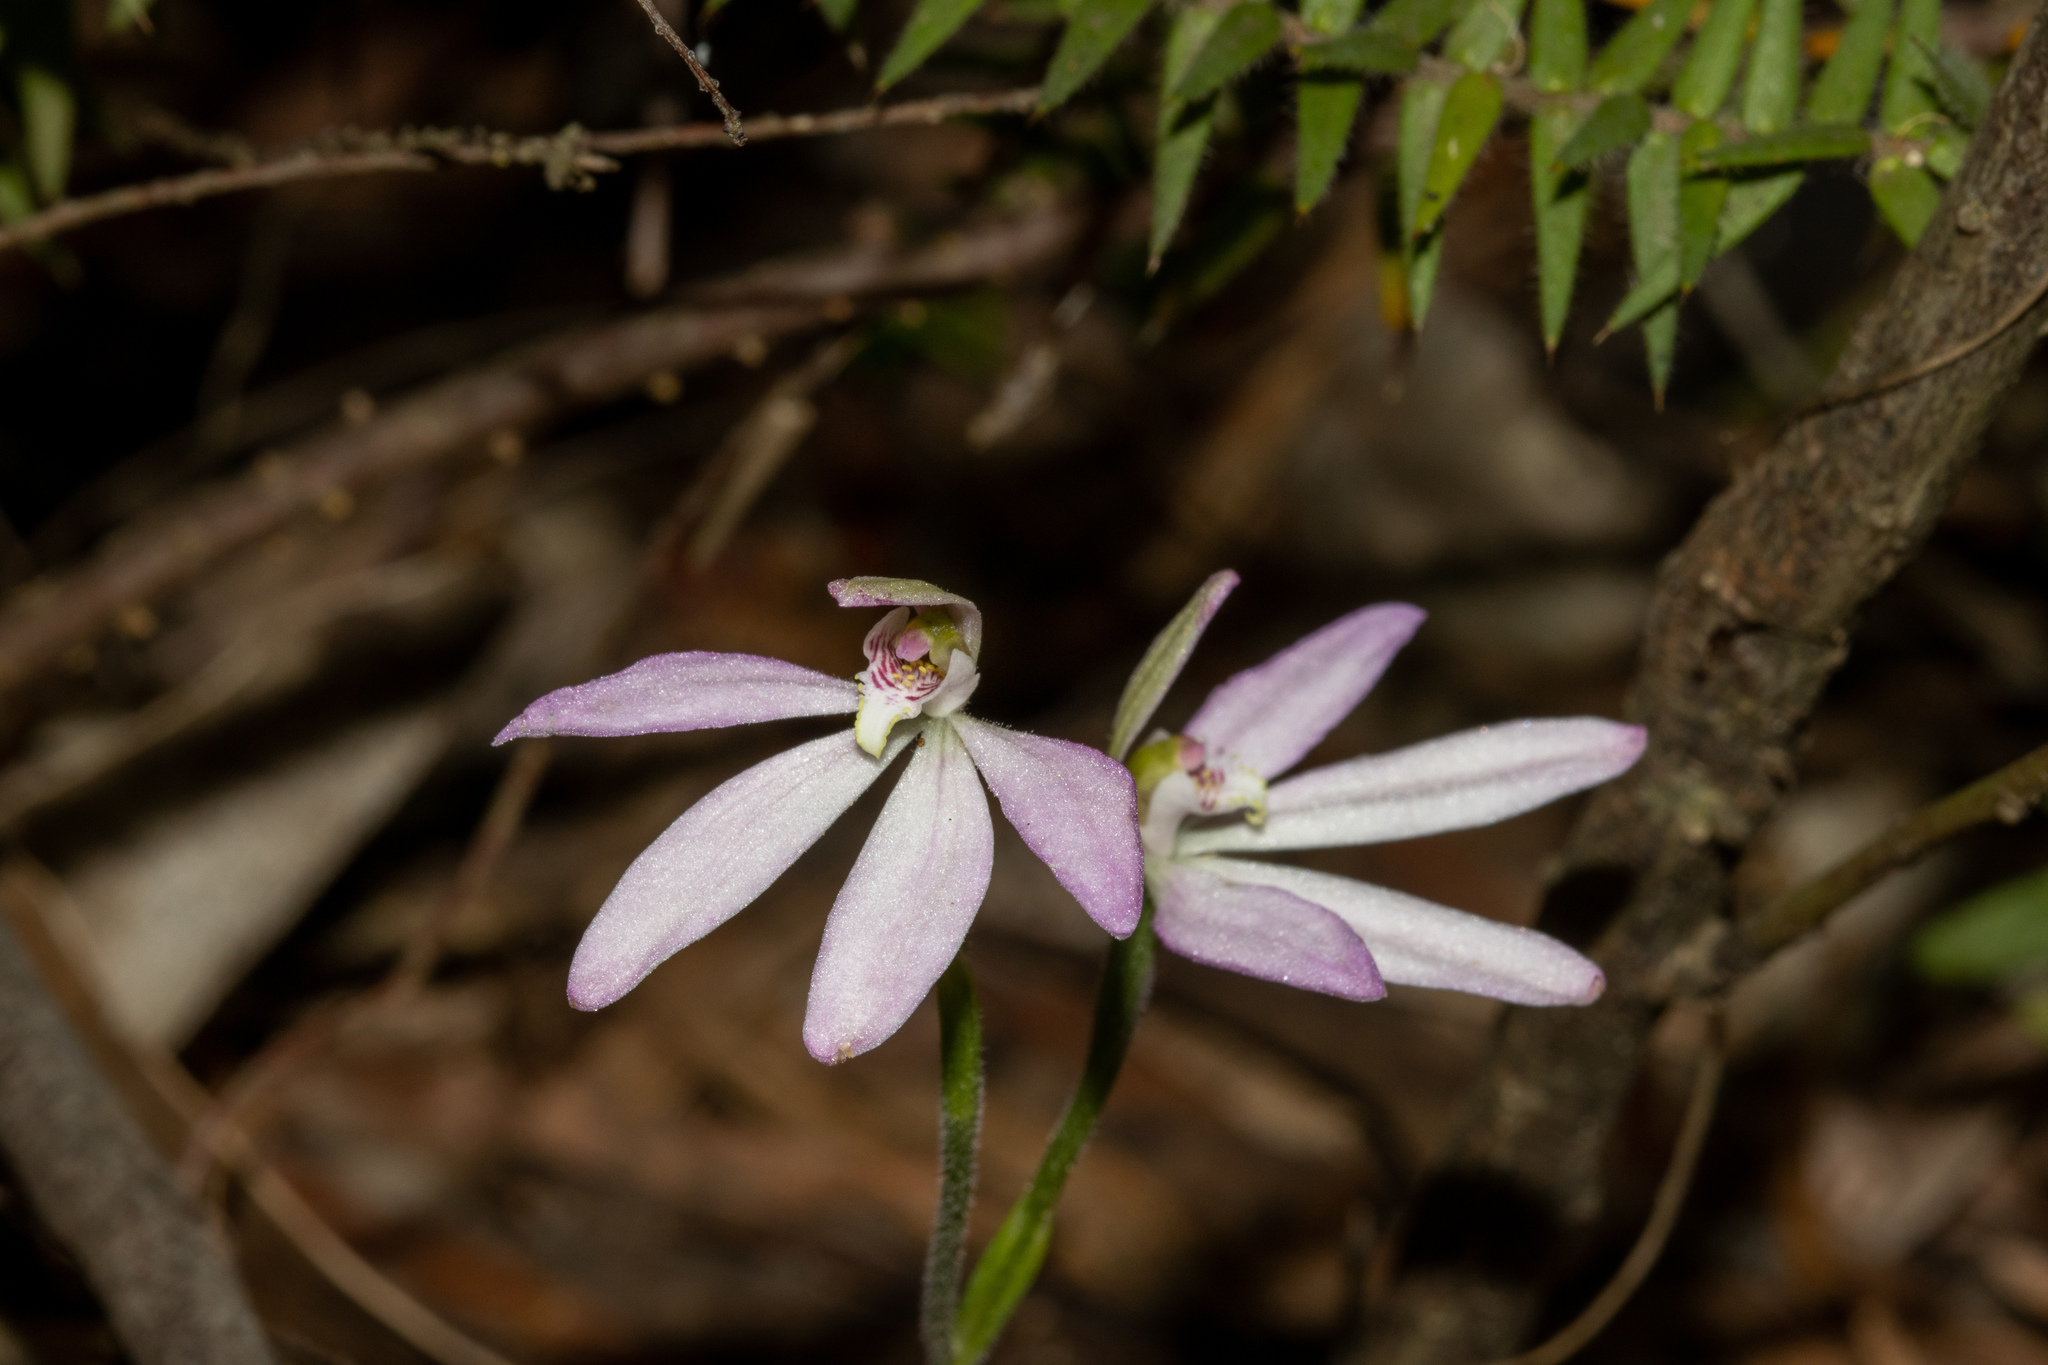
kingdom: Plantae
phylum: Tracheophyta
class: Liliopsida
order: Asparagales
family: Orchidaceae
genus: Caladenia
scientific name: Caladenia carnea
